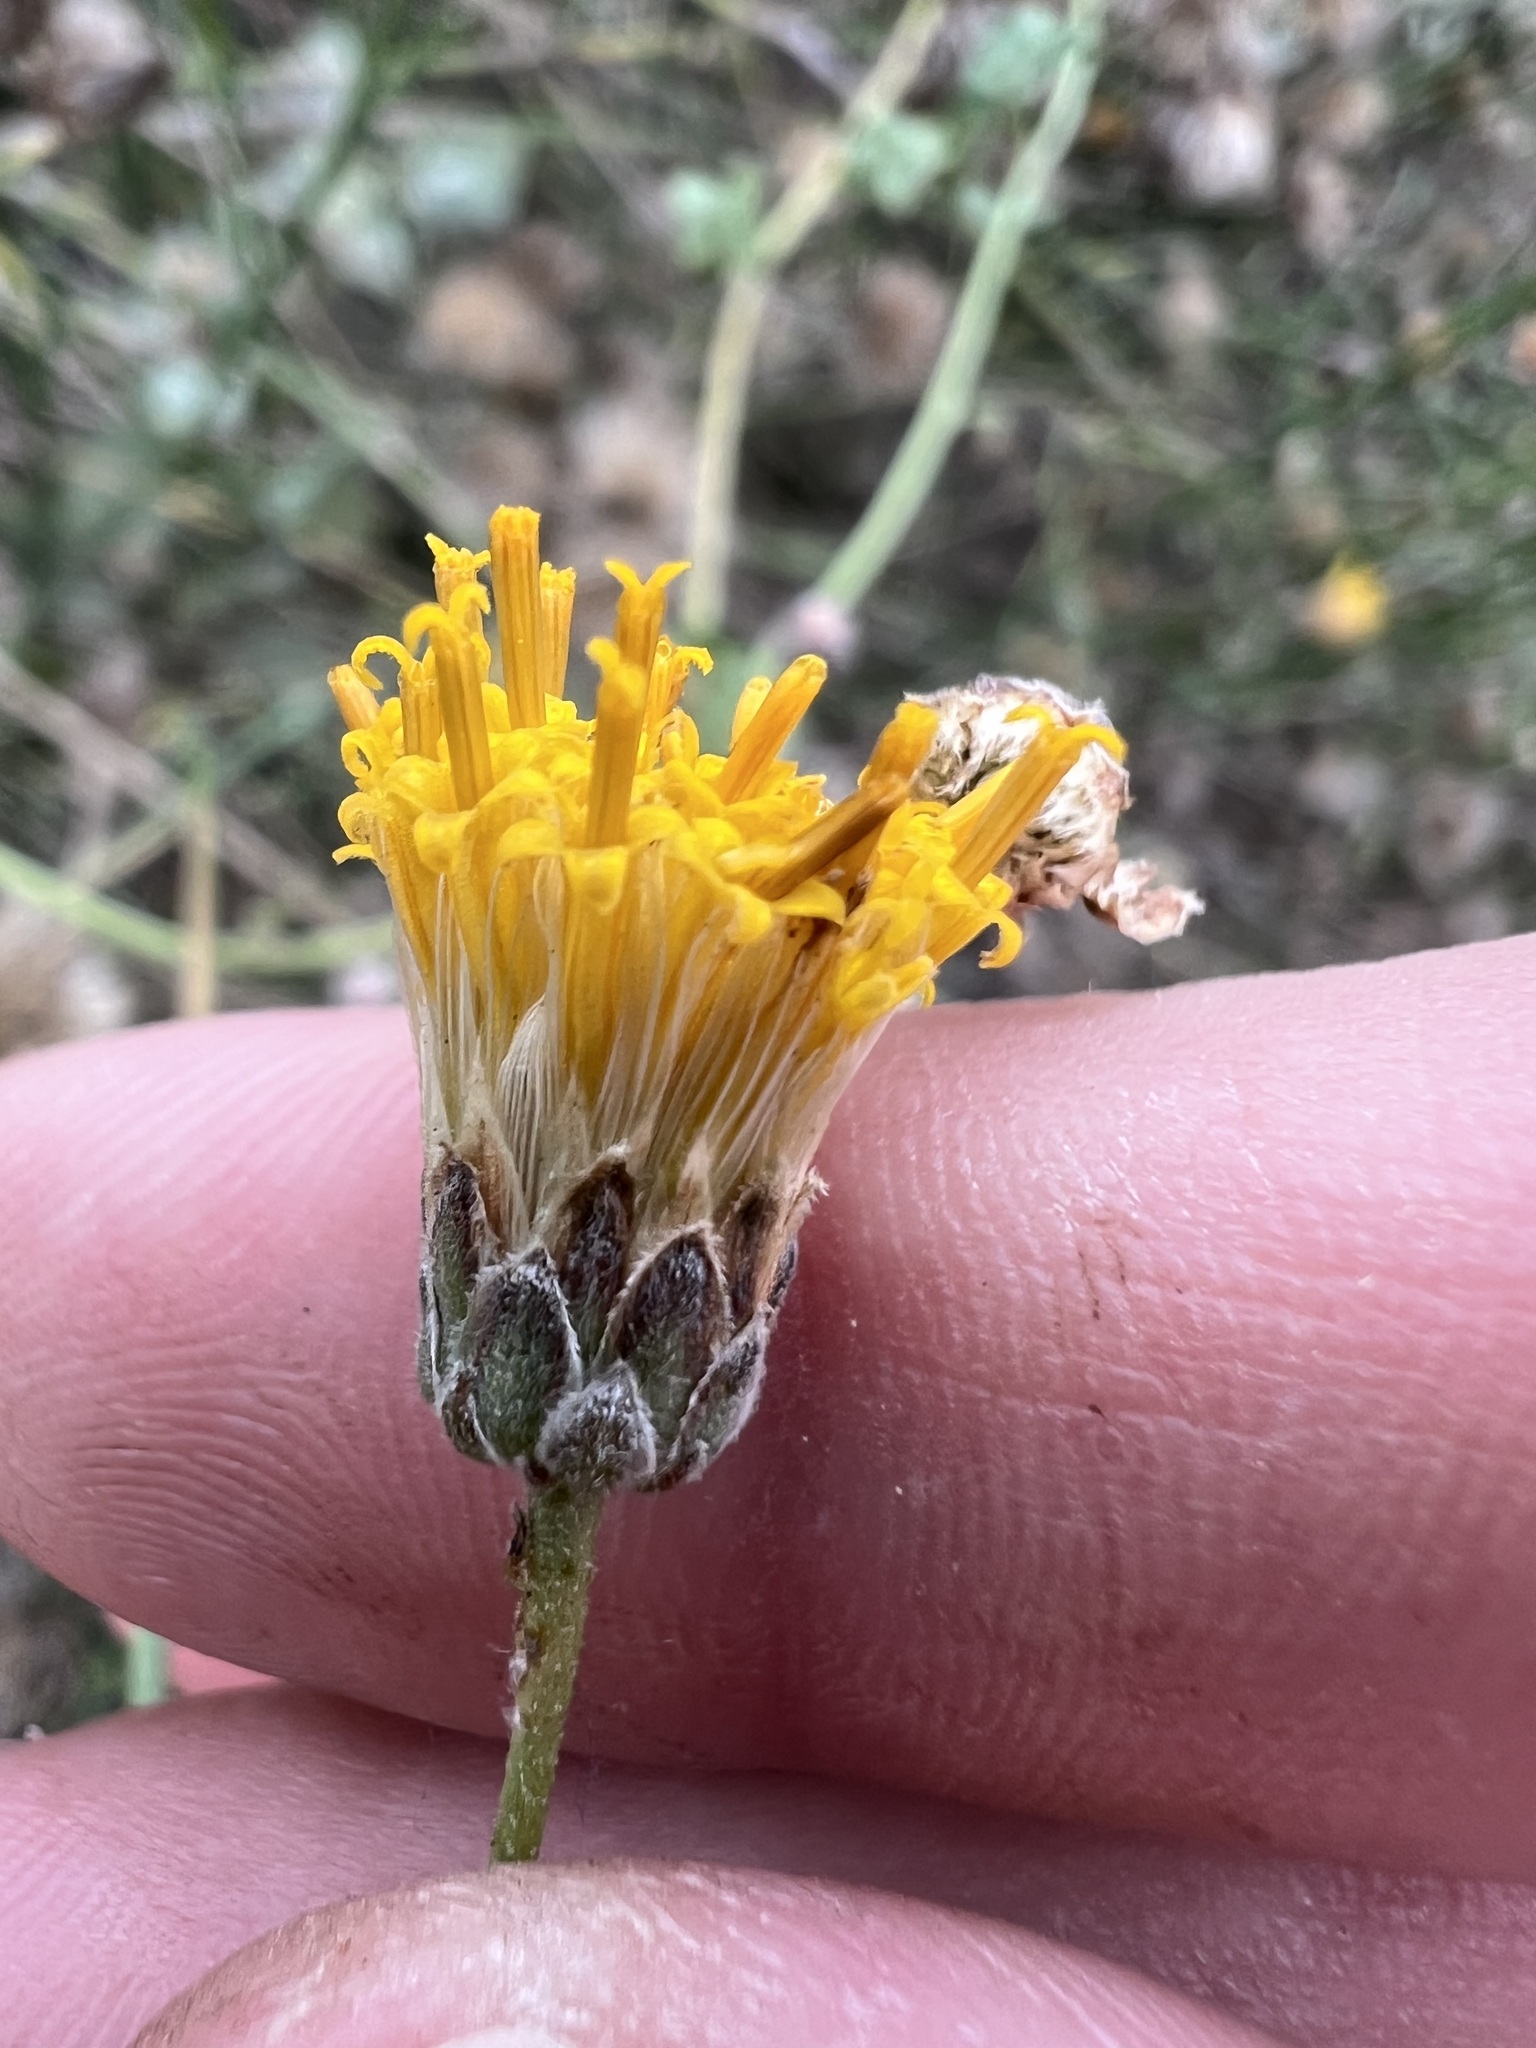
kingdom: Plantae
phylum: Tracheophyta
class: Magnoliopsida
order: Asterales
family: Asteraceae
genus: Bebbia
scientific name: Bebbia juncea
